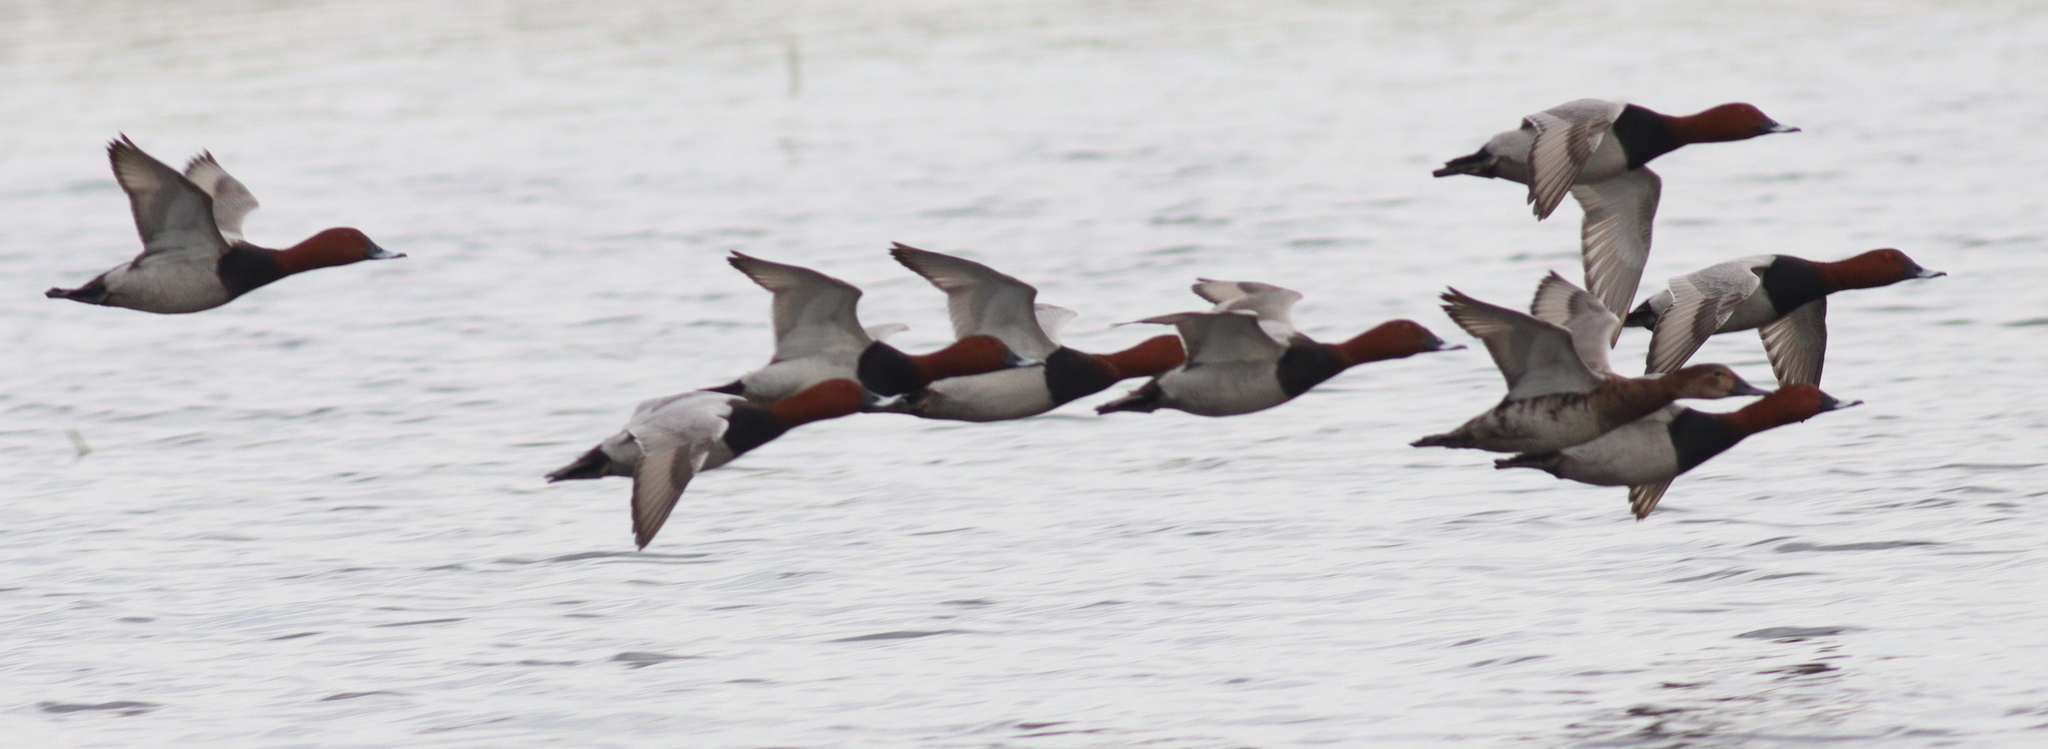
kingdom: Animalia
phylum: Chordata
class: Aves
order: Anseriformes
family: Anatidae
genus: Aythya
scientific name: Aythya ferina
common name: Common pochard
